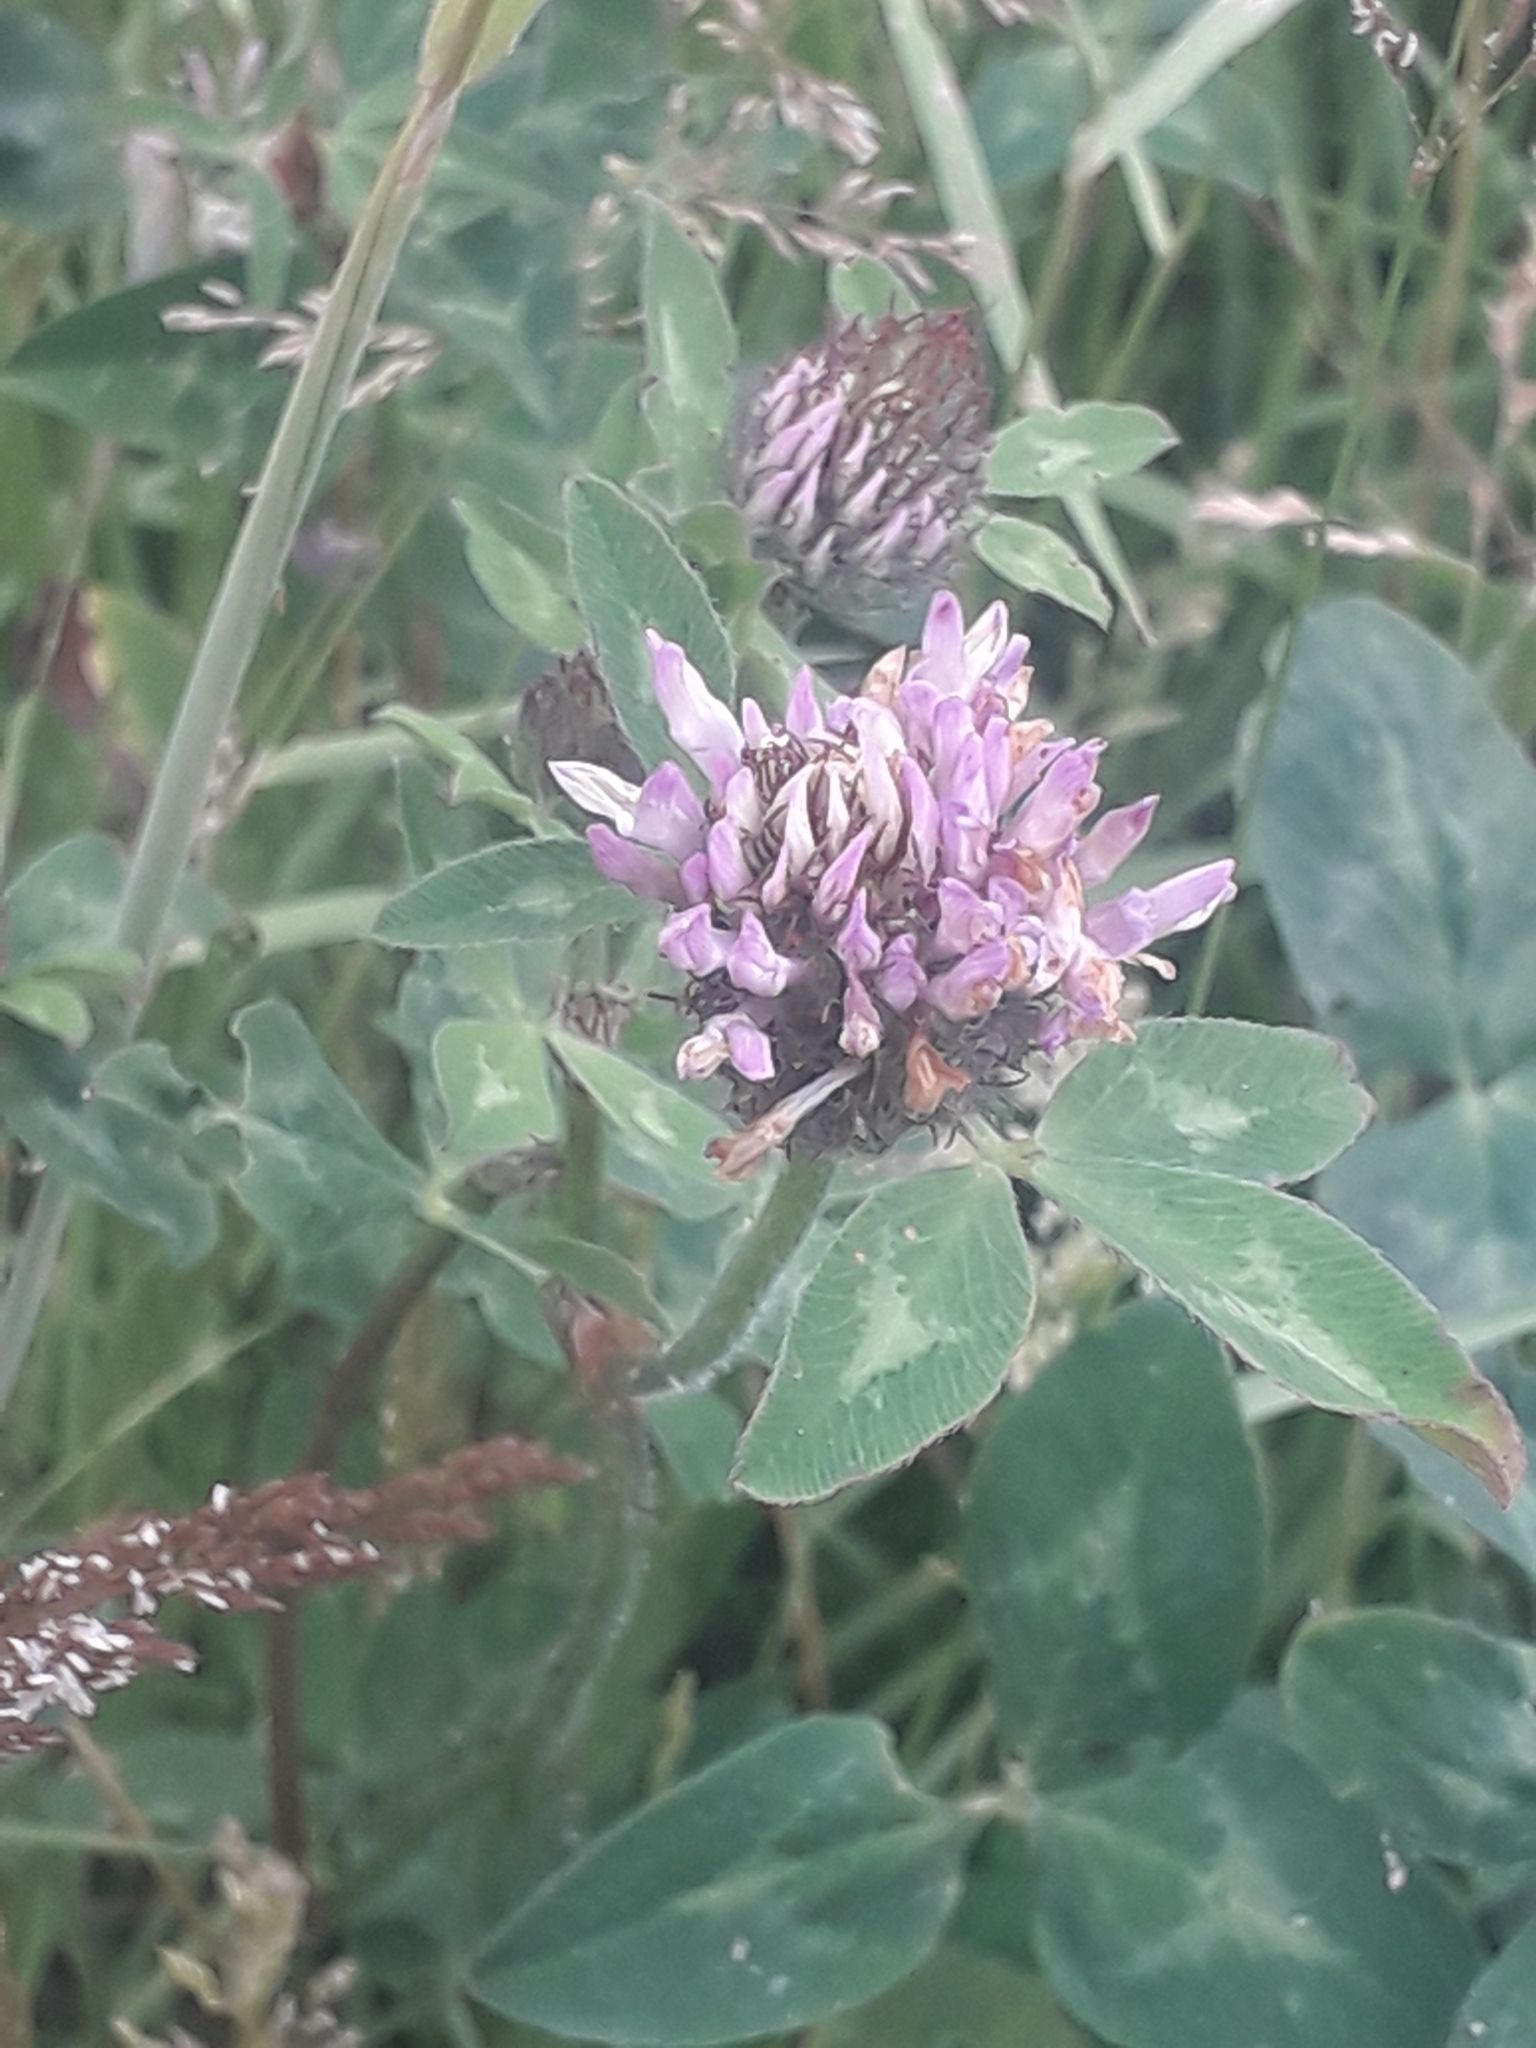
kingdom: Plantae
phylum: Tracheophyta
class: Magnoliopsida
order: Fabales
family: Fabaceae
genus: Trifolium
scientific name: Trifolium pratense
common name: Red clover
